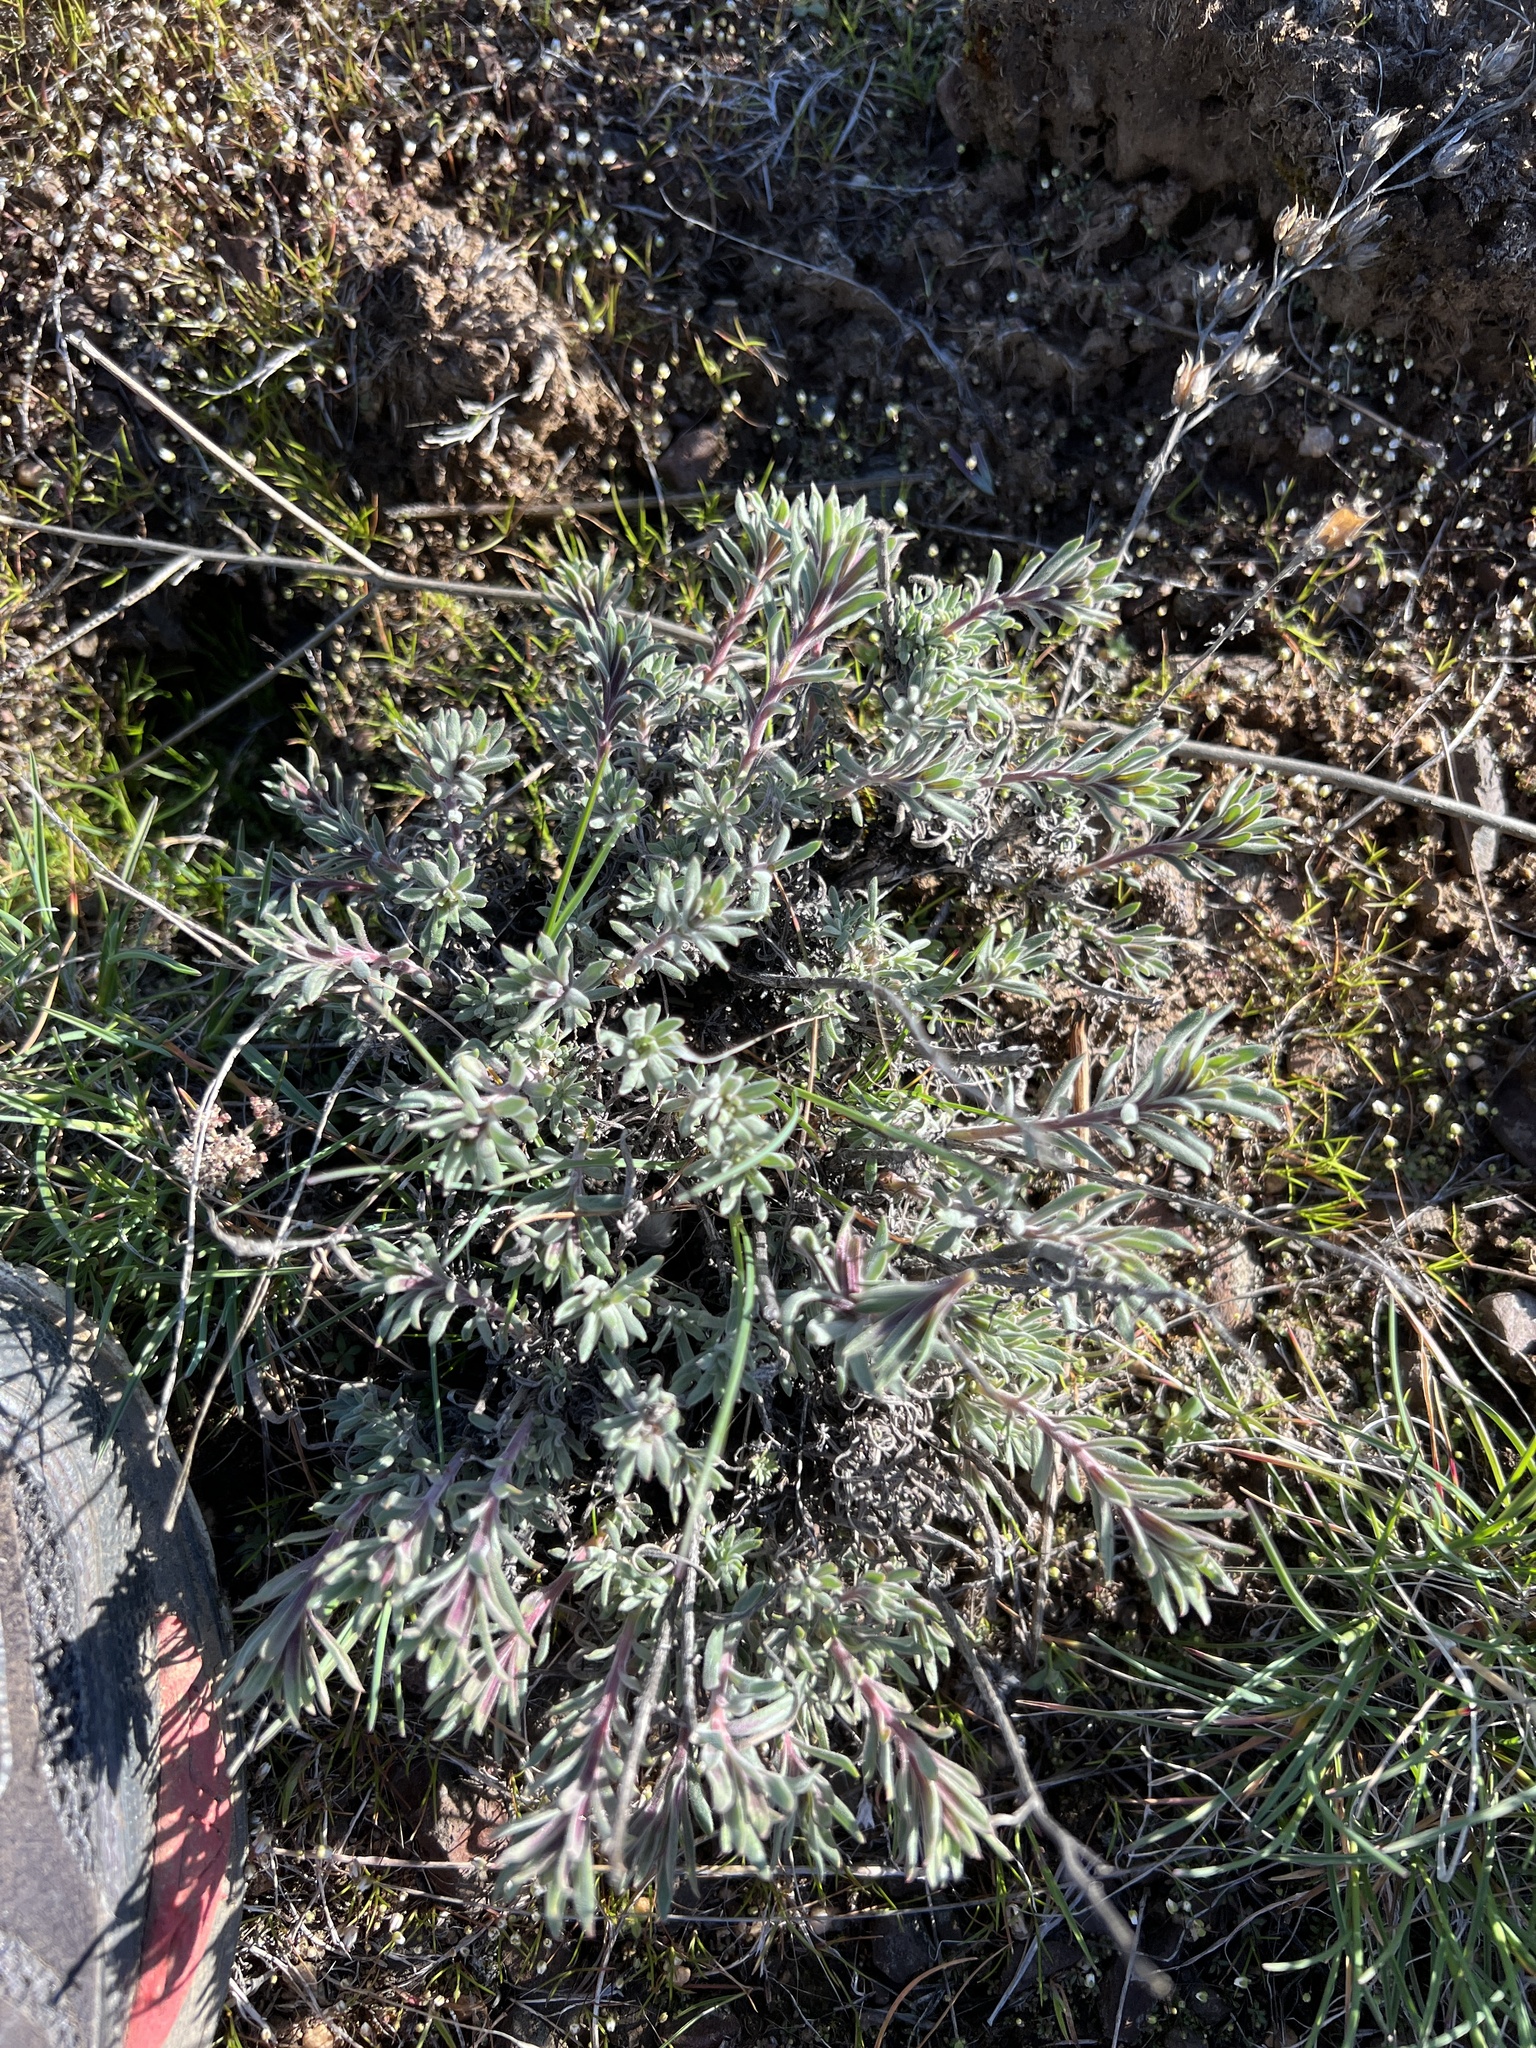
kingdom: Plantae
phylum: Tracheophyta
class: Magnoliopsida
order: Lamiales
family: Plantaginaceae
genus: Penstemon
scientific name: Penstemon gairdneri
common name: Gairdner's penstemon
